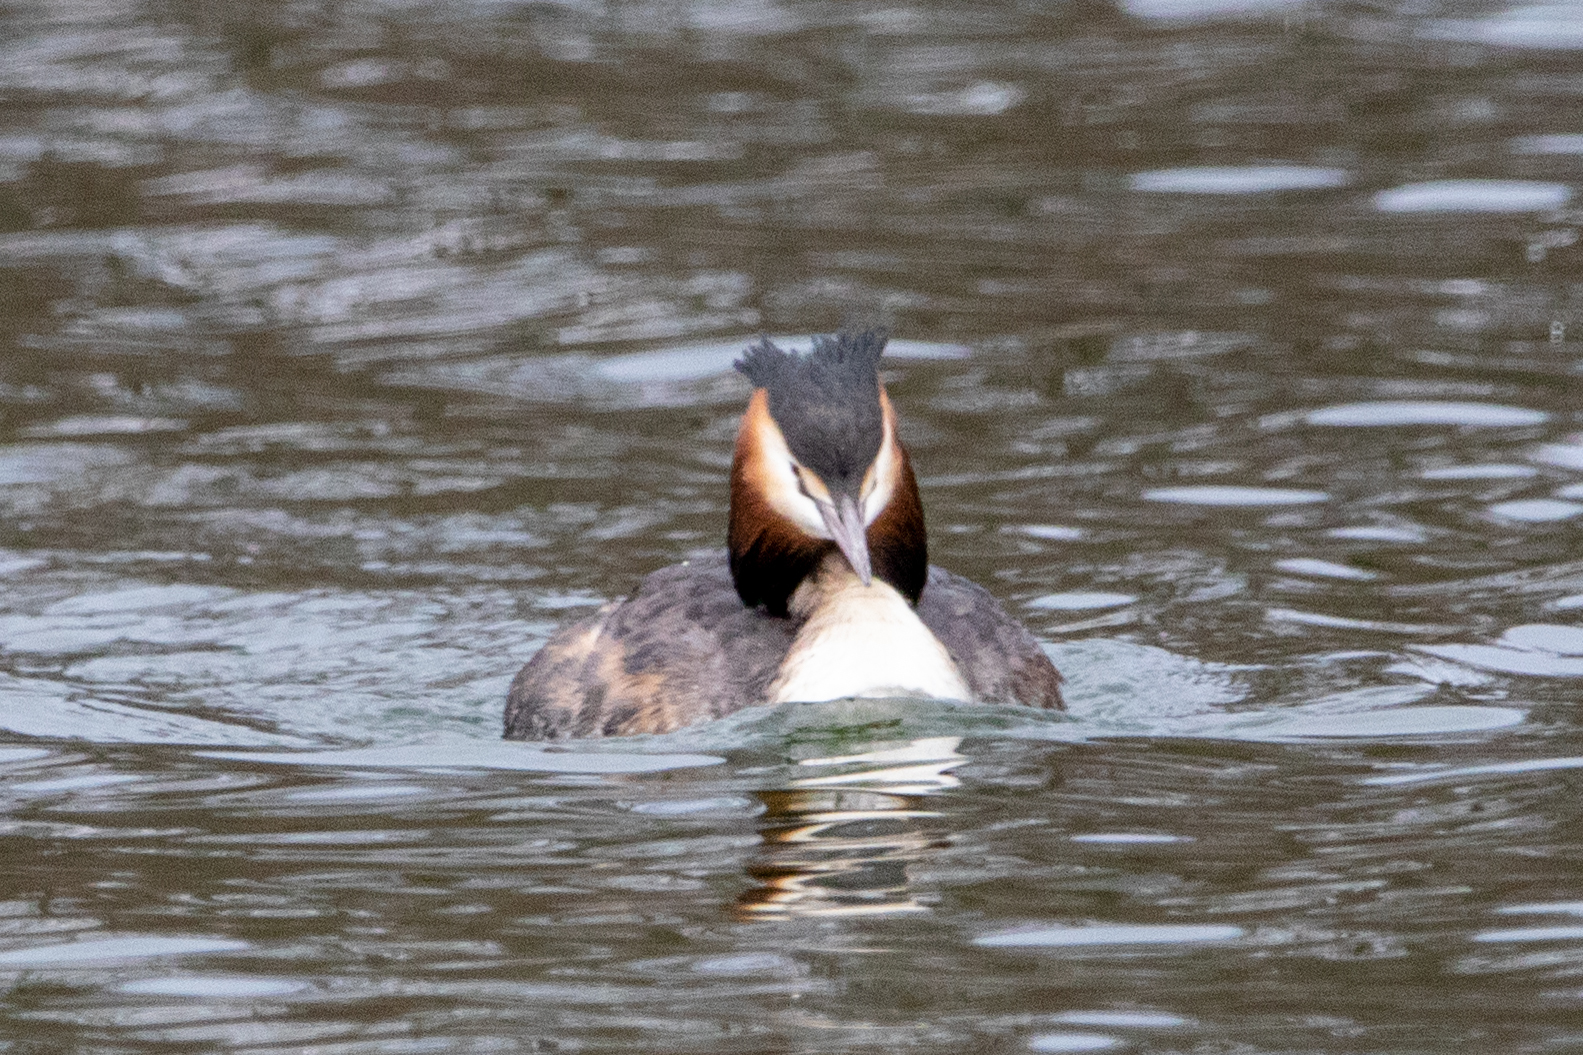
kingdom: Animalia
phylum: Chordata
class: Aves
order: Podicipediformes
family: Podicipedidae
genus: Podiceps
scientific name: Podiceps cristatus
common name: Great crested grebe
